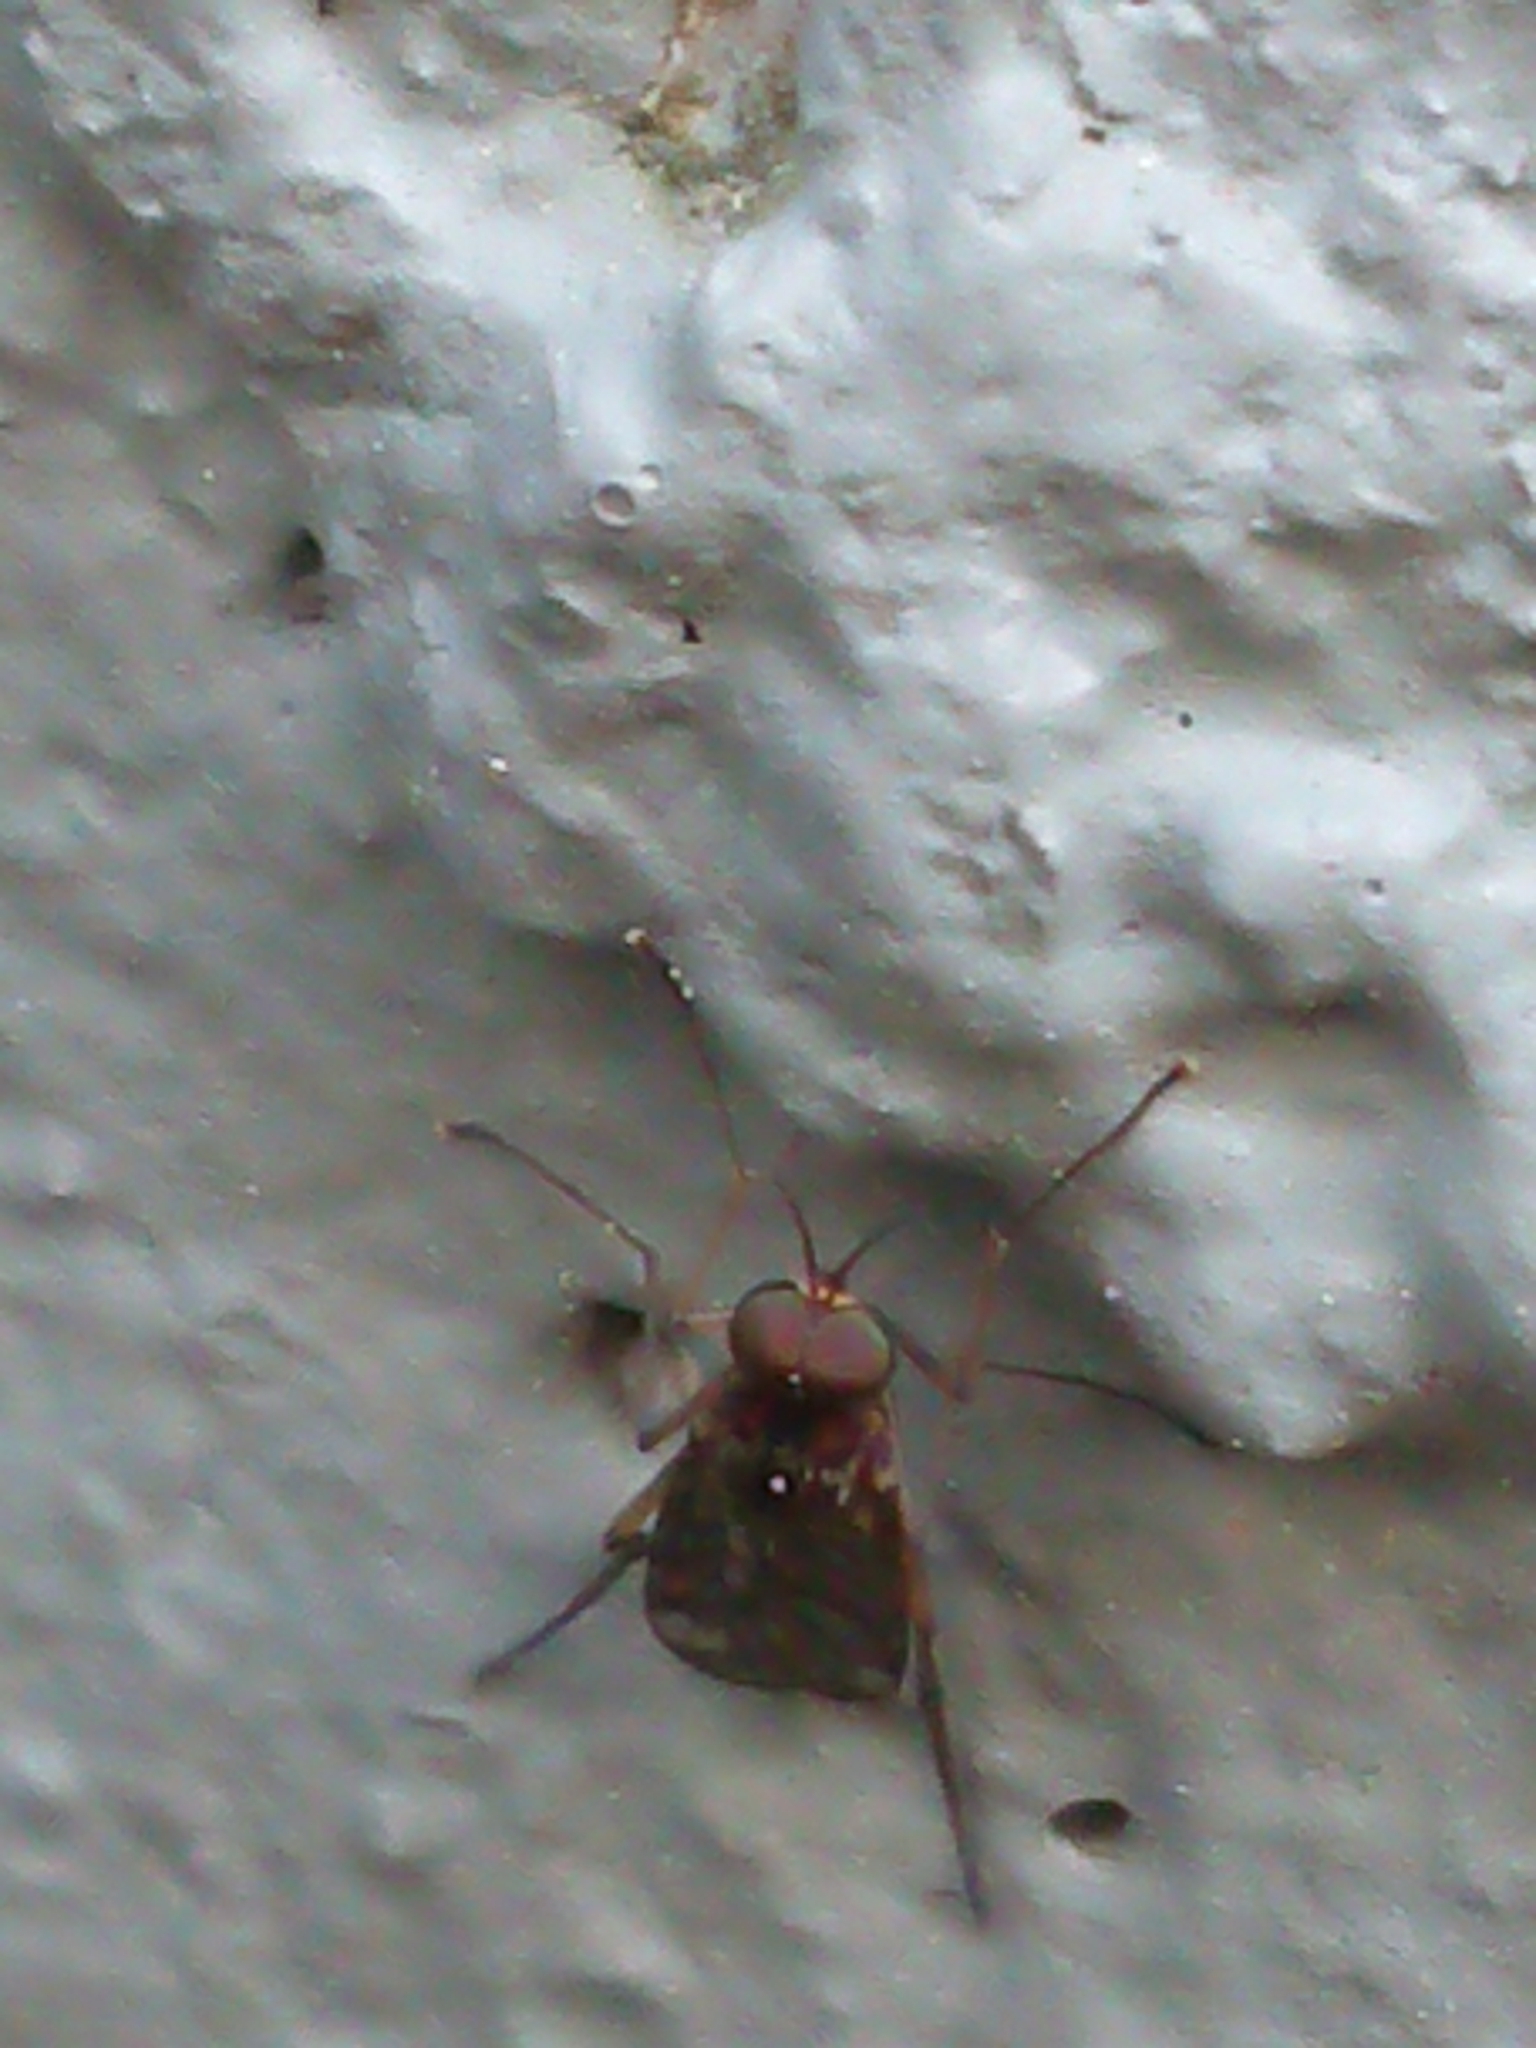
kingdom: Animalia
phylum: Arthropoda
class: Insecta
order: Diptera
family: Anisopodidae
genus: Sylvicola
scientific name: Sylvicola dubius
